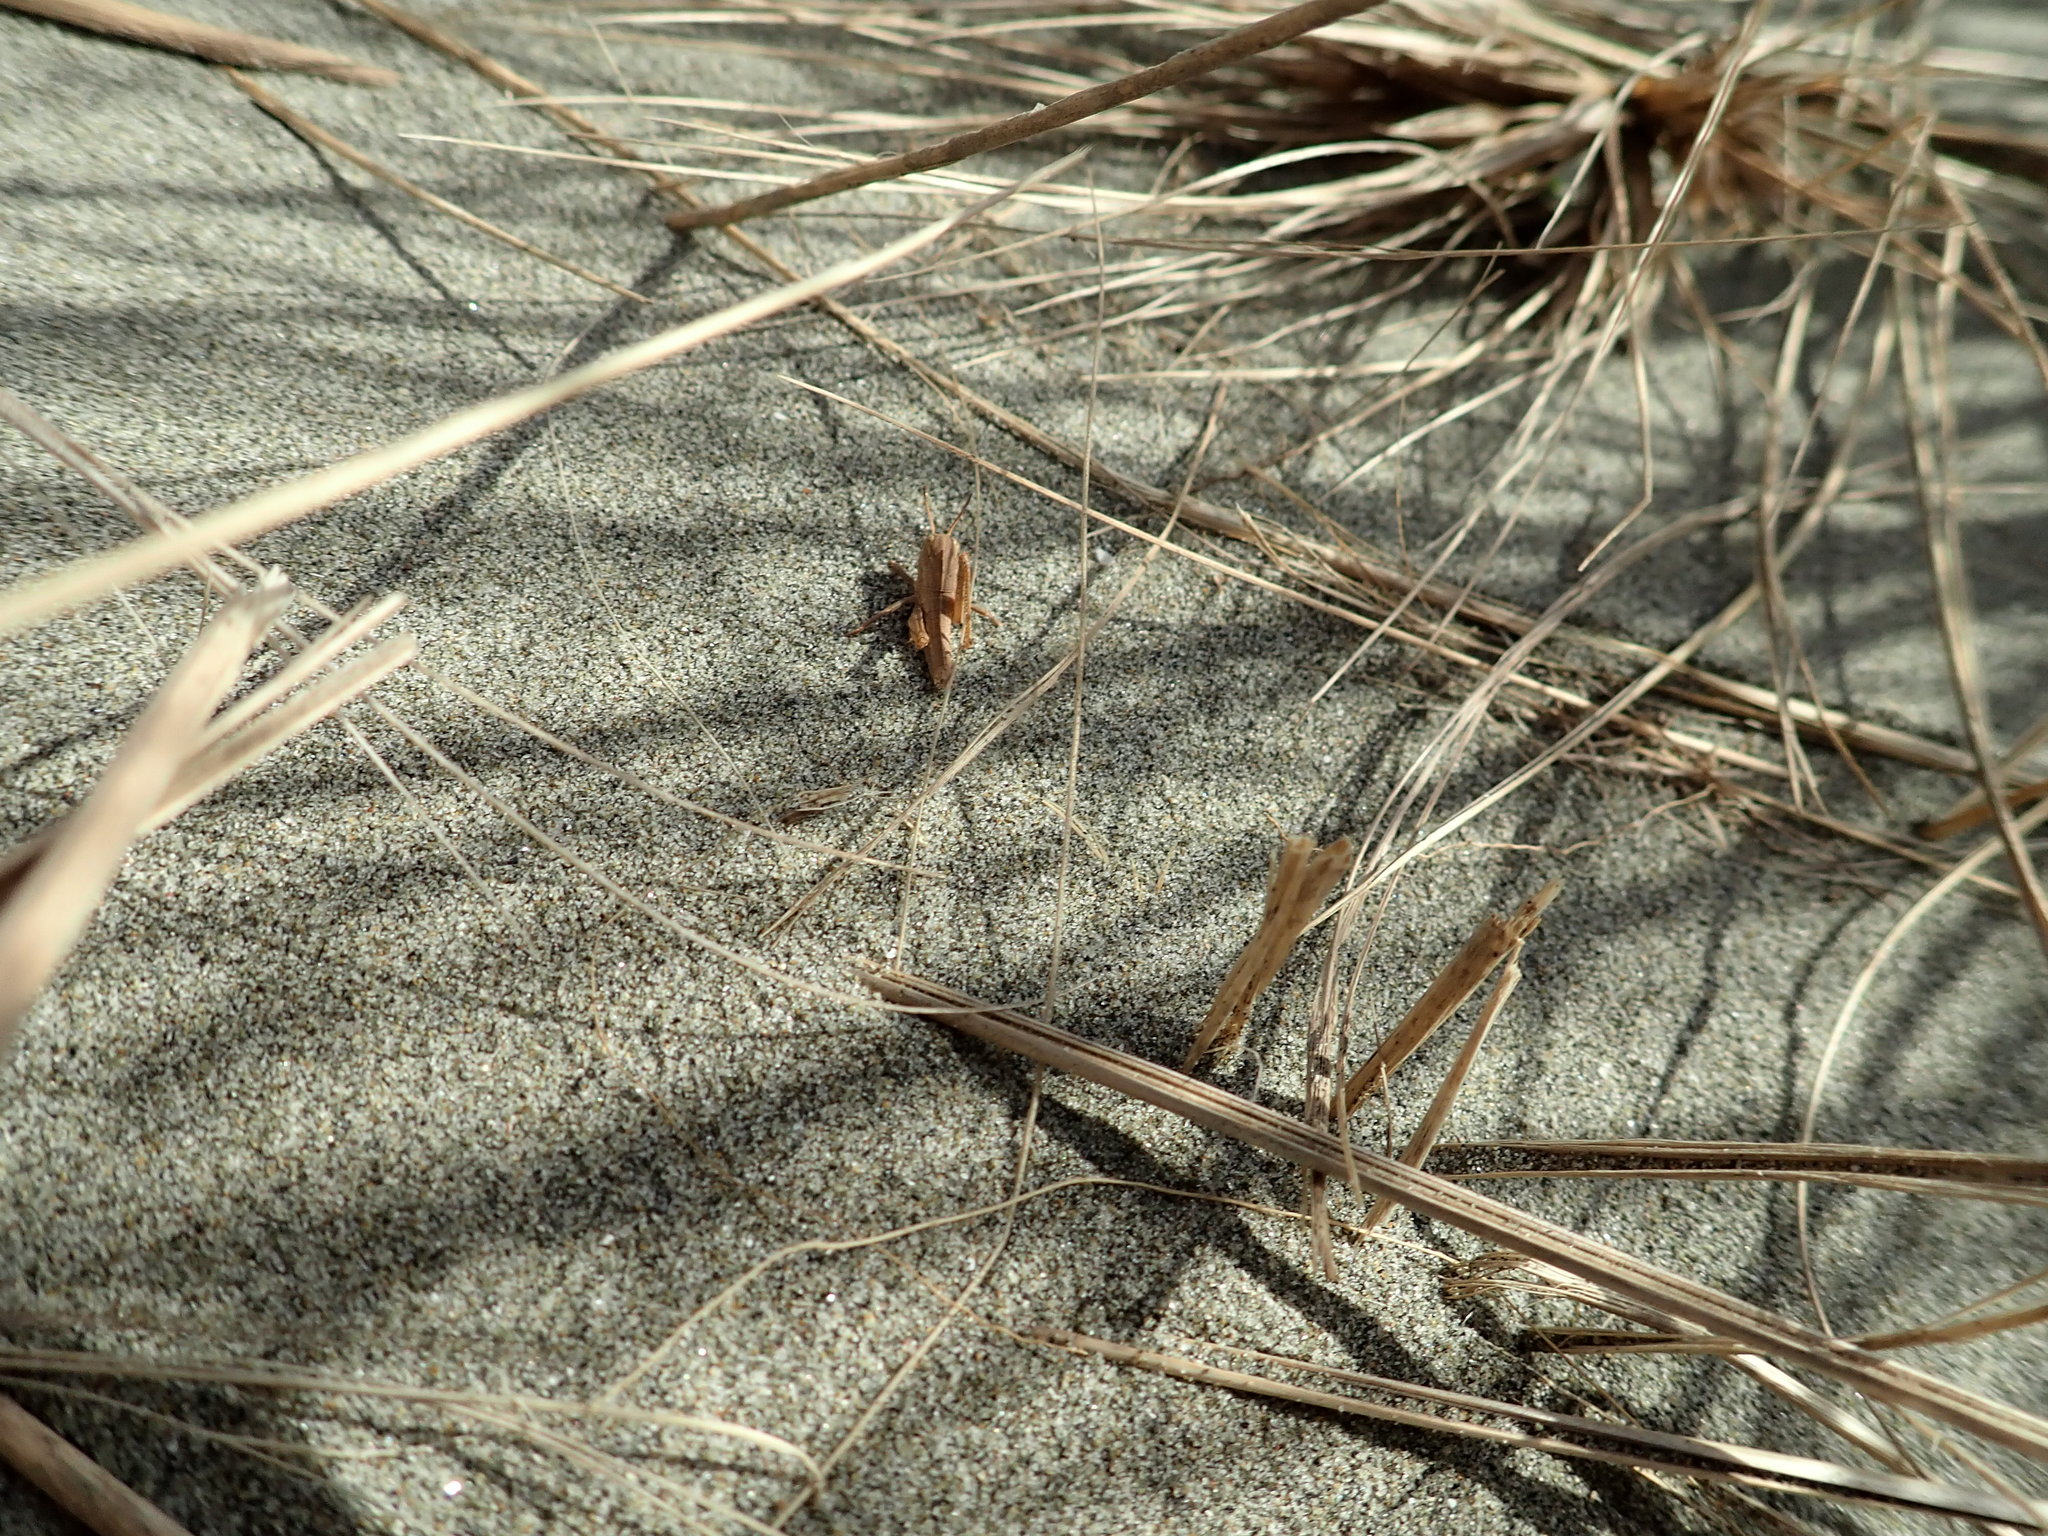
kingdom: Animalia
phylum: Arthropoda
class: Insecta
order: Orthoptera
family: Acrididae
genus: Locusta
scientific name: Locusta migratoria
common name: Migratory locust
